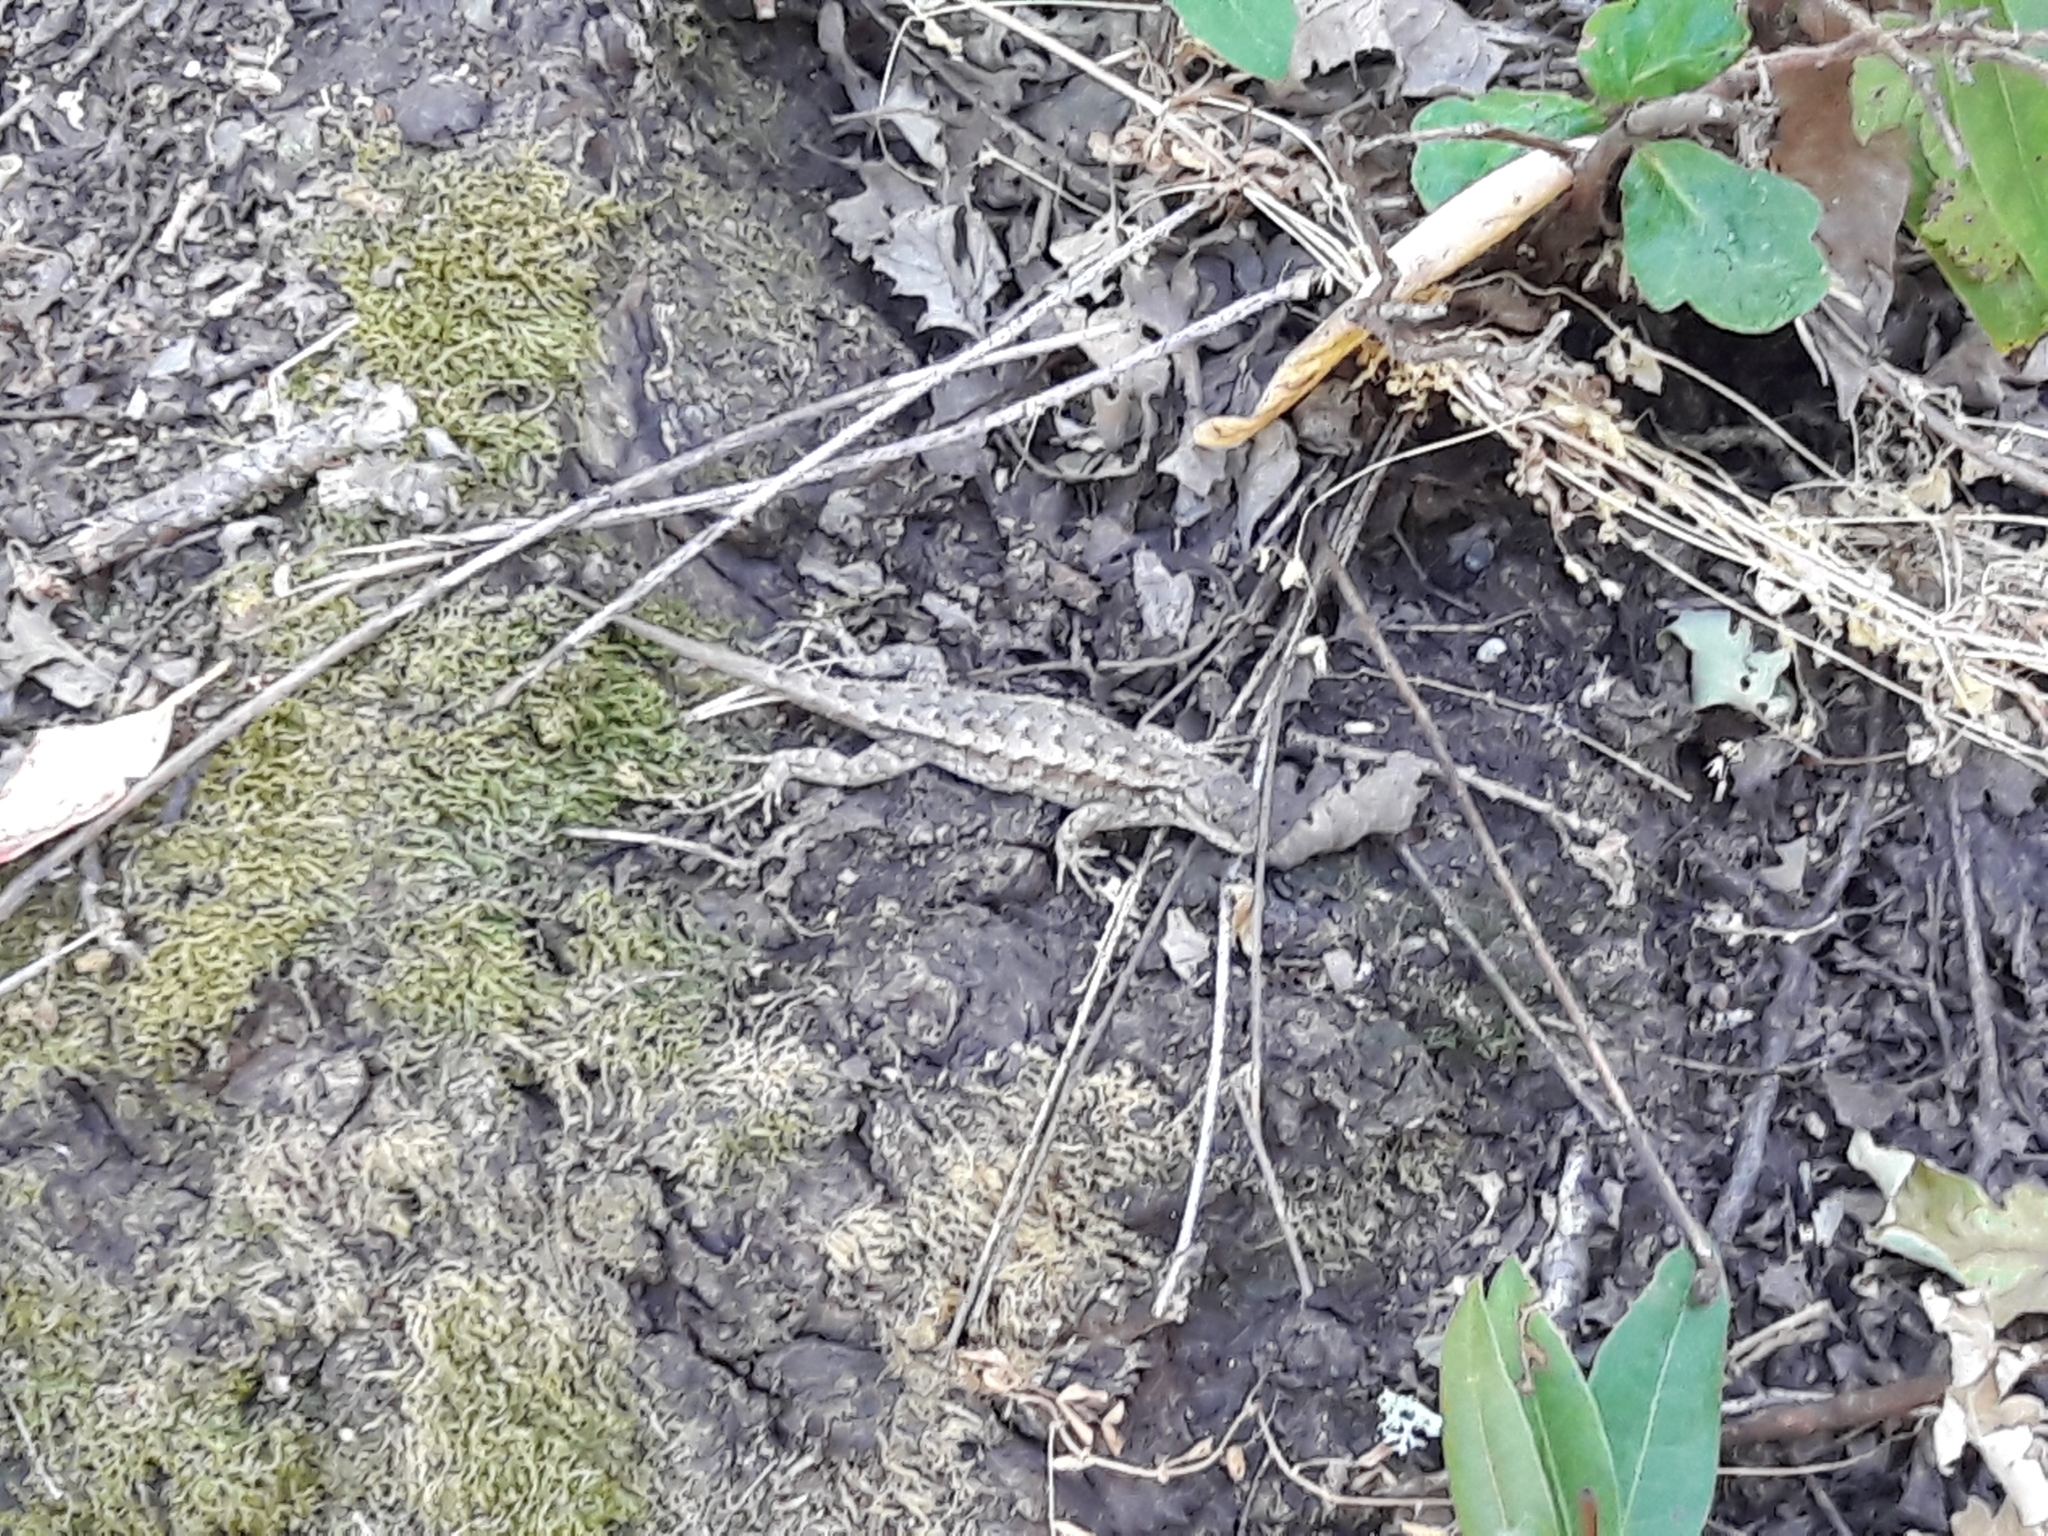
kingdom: Animalia
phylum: Chordata
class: Squamata
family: Phrynosomatidae
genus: Sceloporus
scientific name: Sceloporus occidentalis
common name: Western fence lizard
